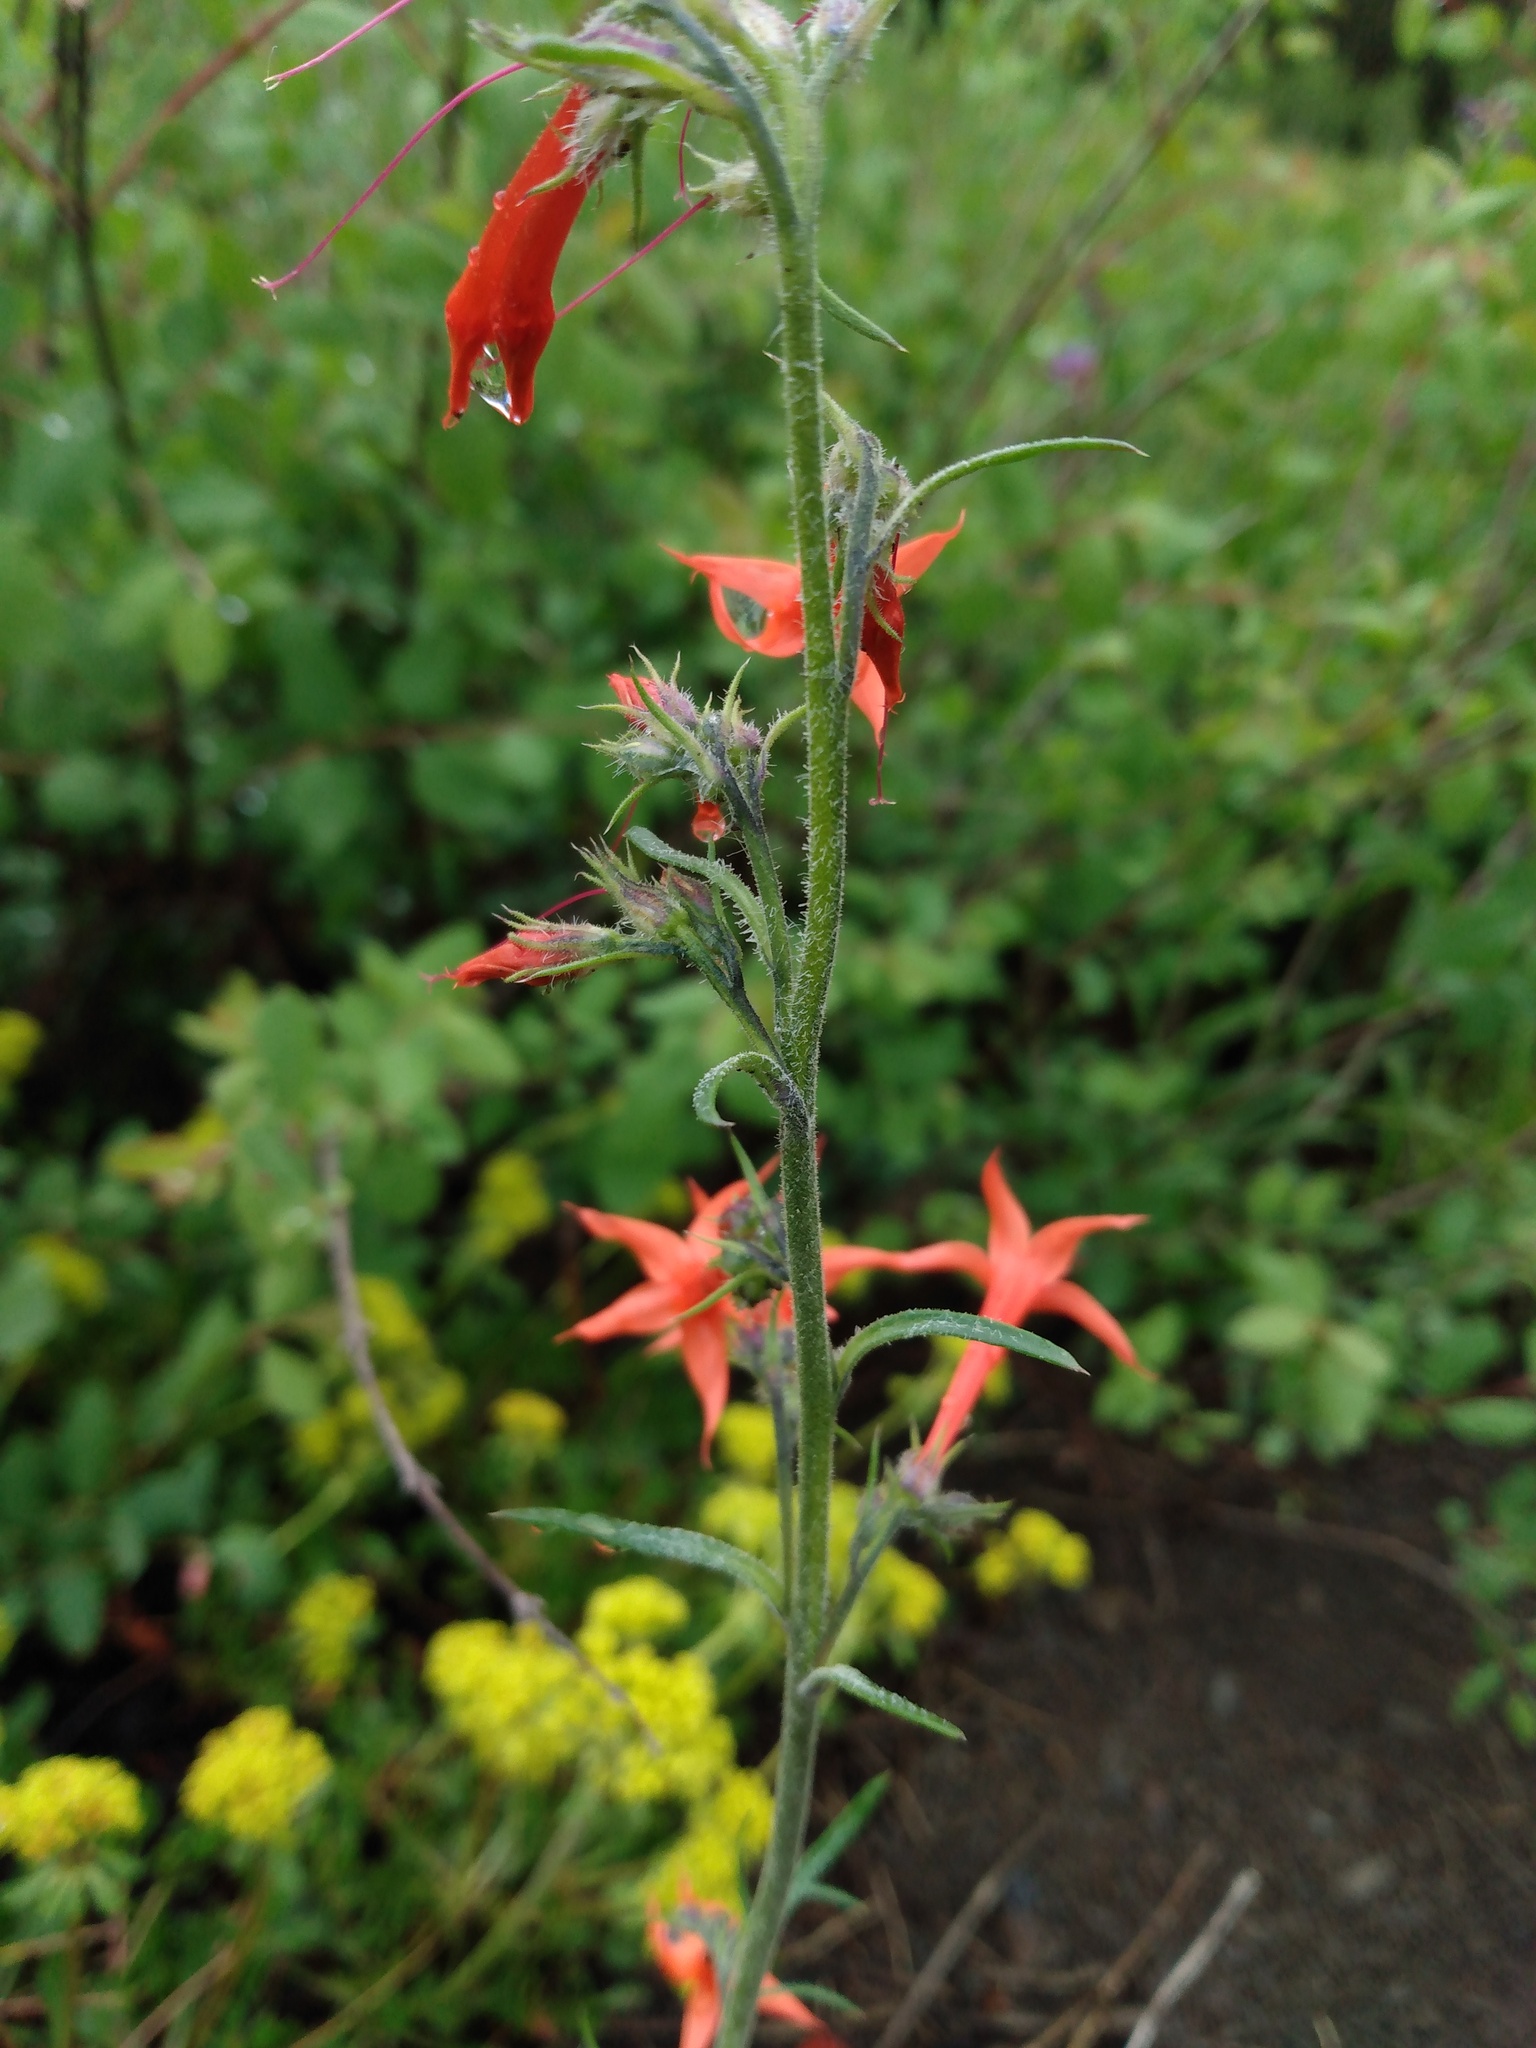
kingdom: Plantae
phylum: Tracheophyta
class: Magnoliopsida
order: Ericales
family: Polemoniaceae
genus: Ipomopsis
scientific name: Ipomopsis aggregata
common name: Scarlet gilia
